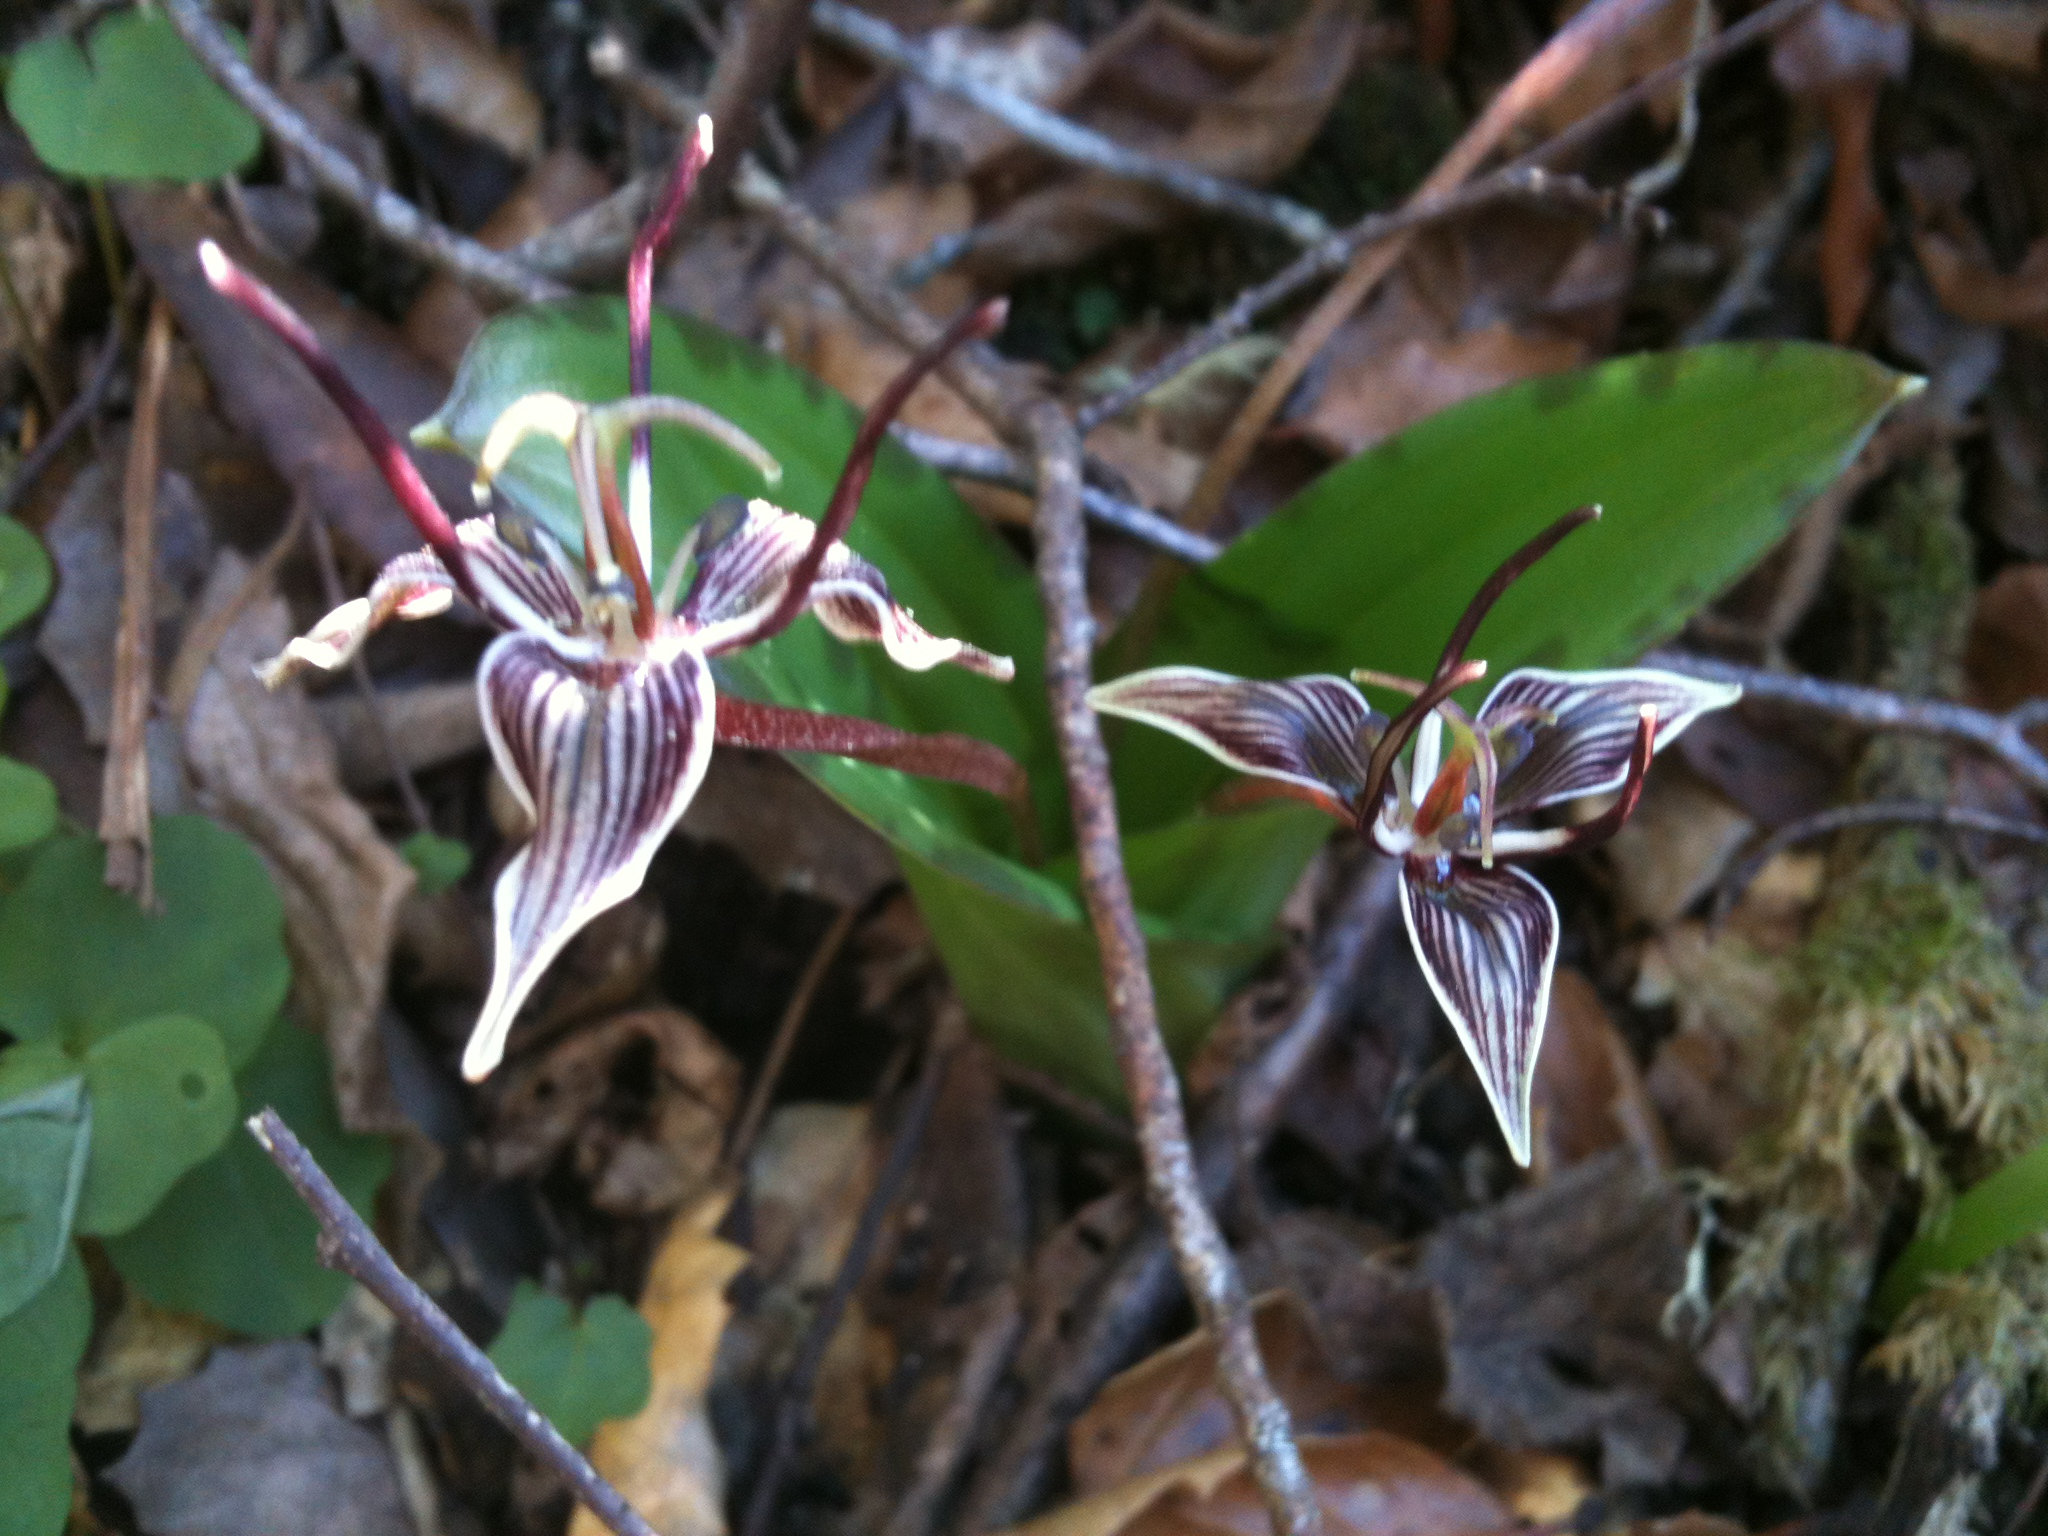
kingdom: Plantae
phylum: Tracheophyta
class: Liliopsida
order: Liliales
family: Liliaceae
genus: Scoliopus
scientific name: Scoliopus bigelovii
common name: Foetid adder's-tongue
